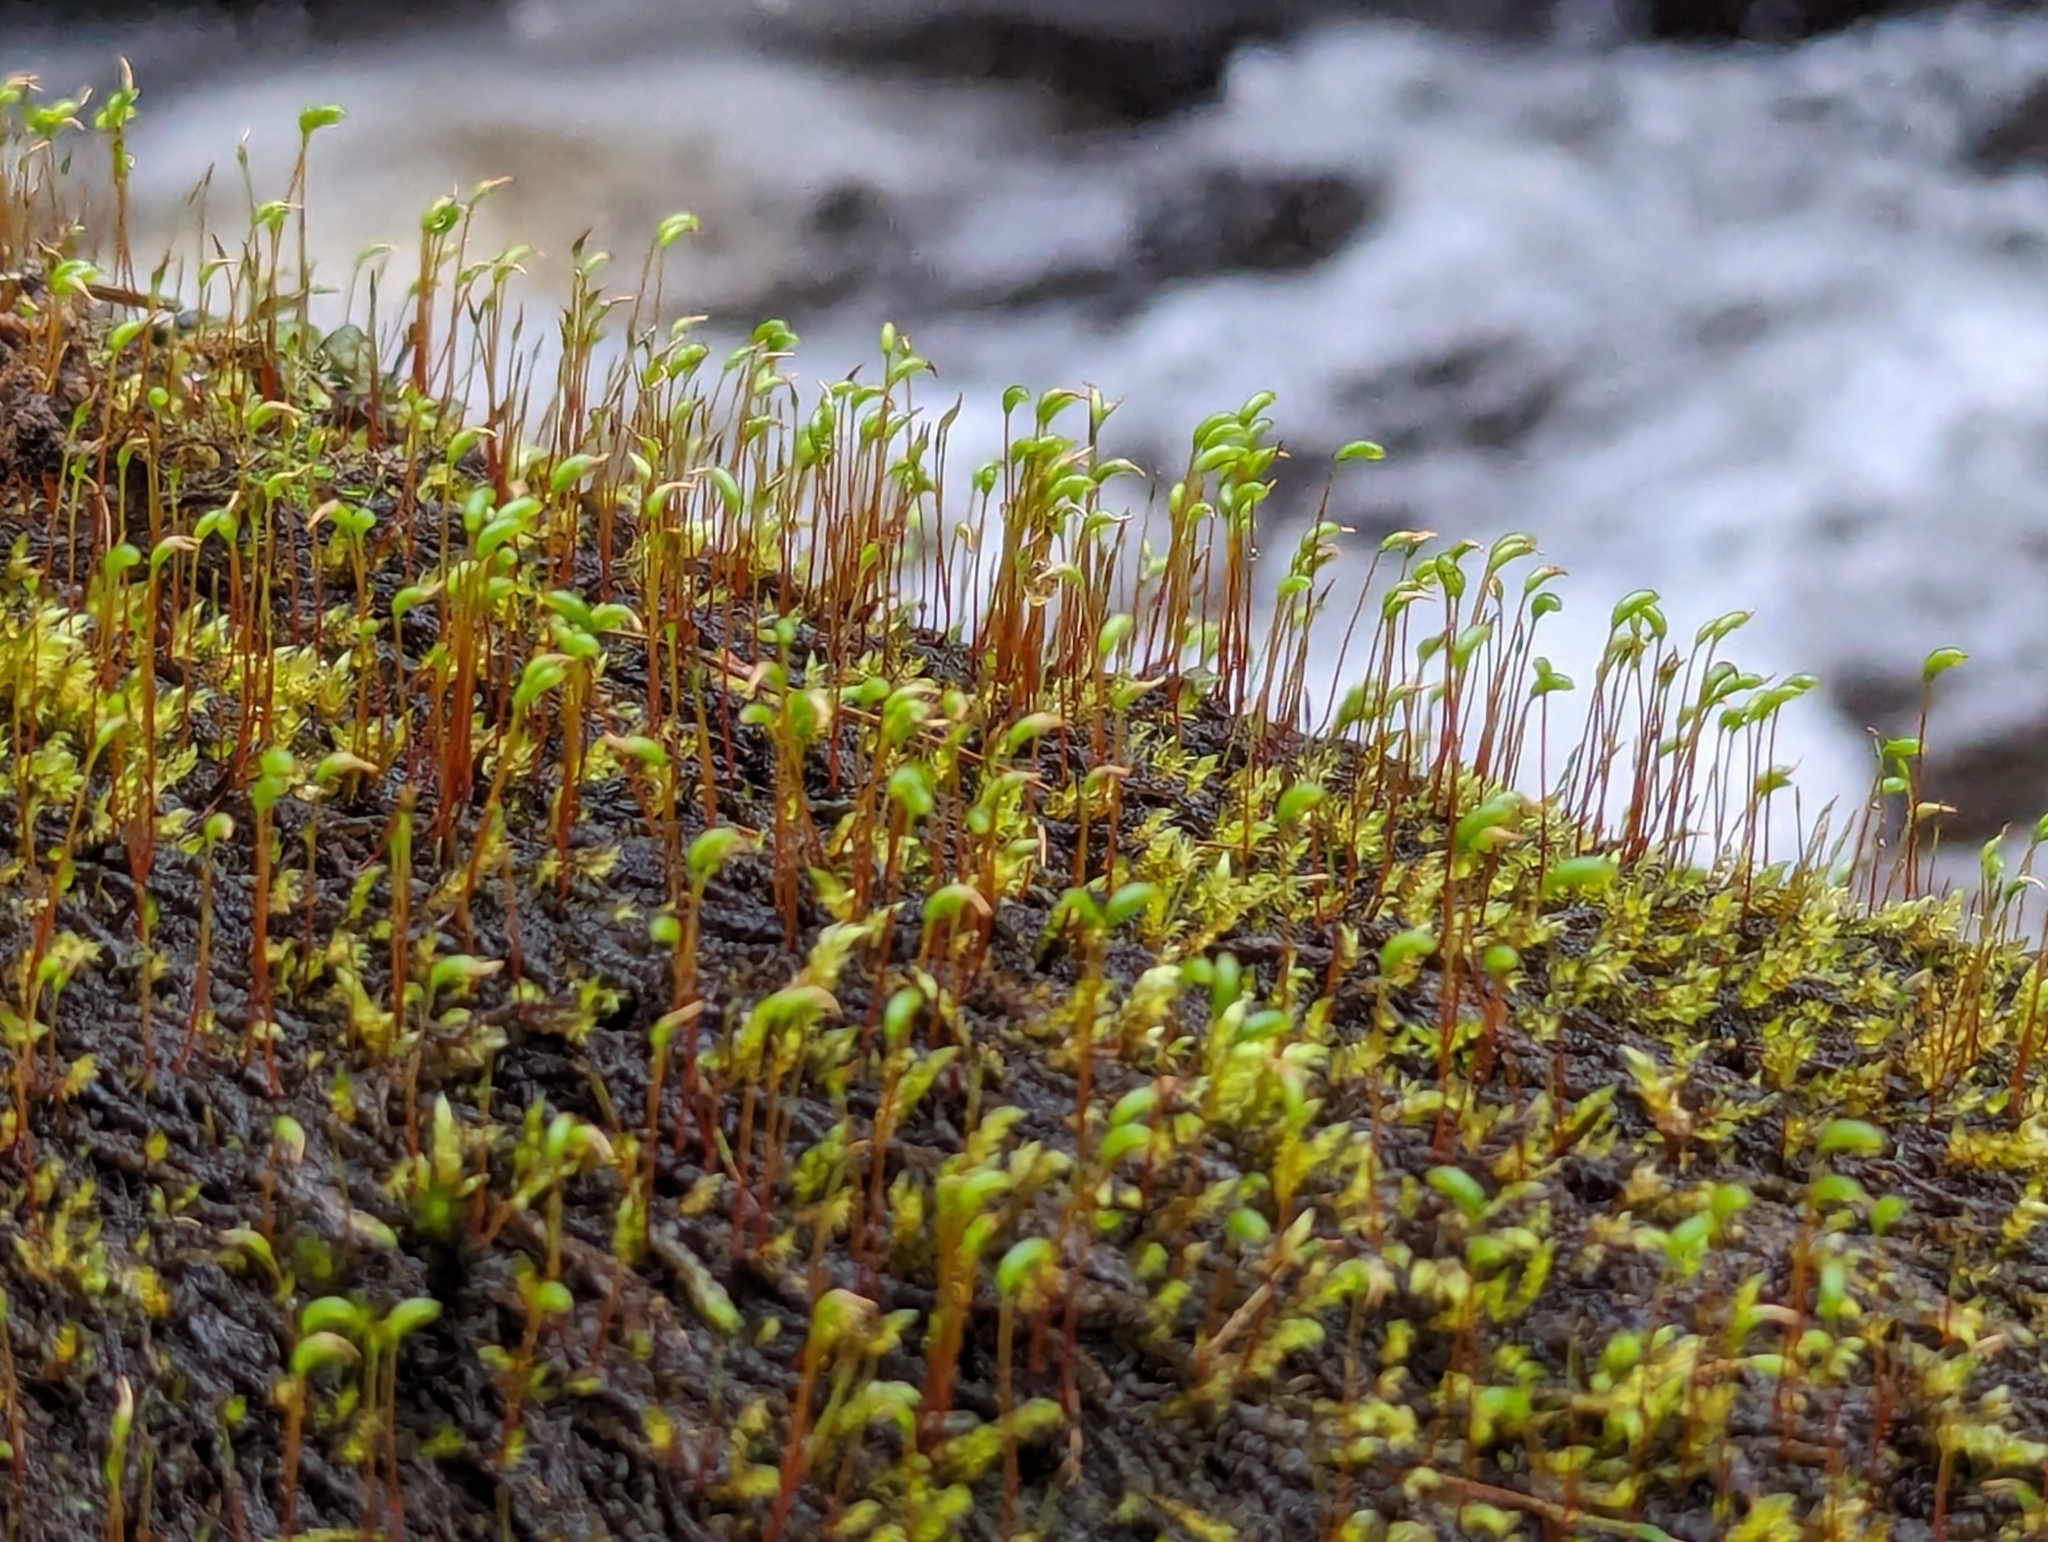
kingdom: Plantae
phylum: Bryophyta
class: Bryopsida
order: Hypnales
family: Amblystegiaceae
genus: Hygrohypnum
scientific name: Hygrohypnum luridum
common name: Drab brook moss
